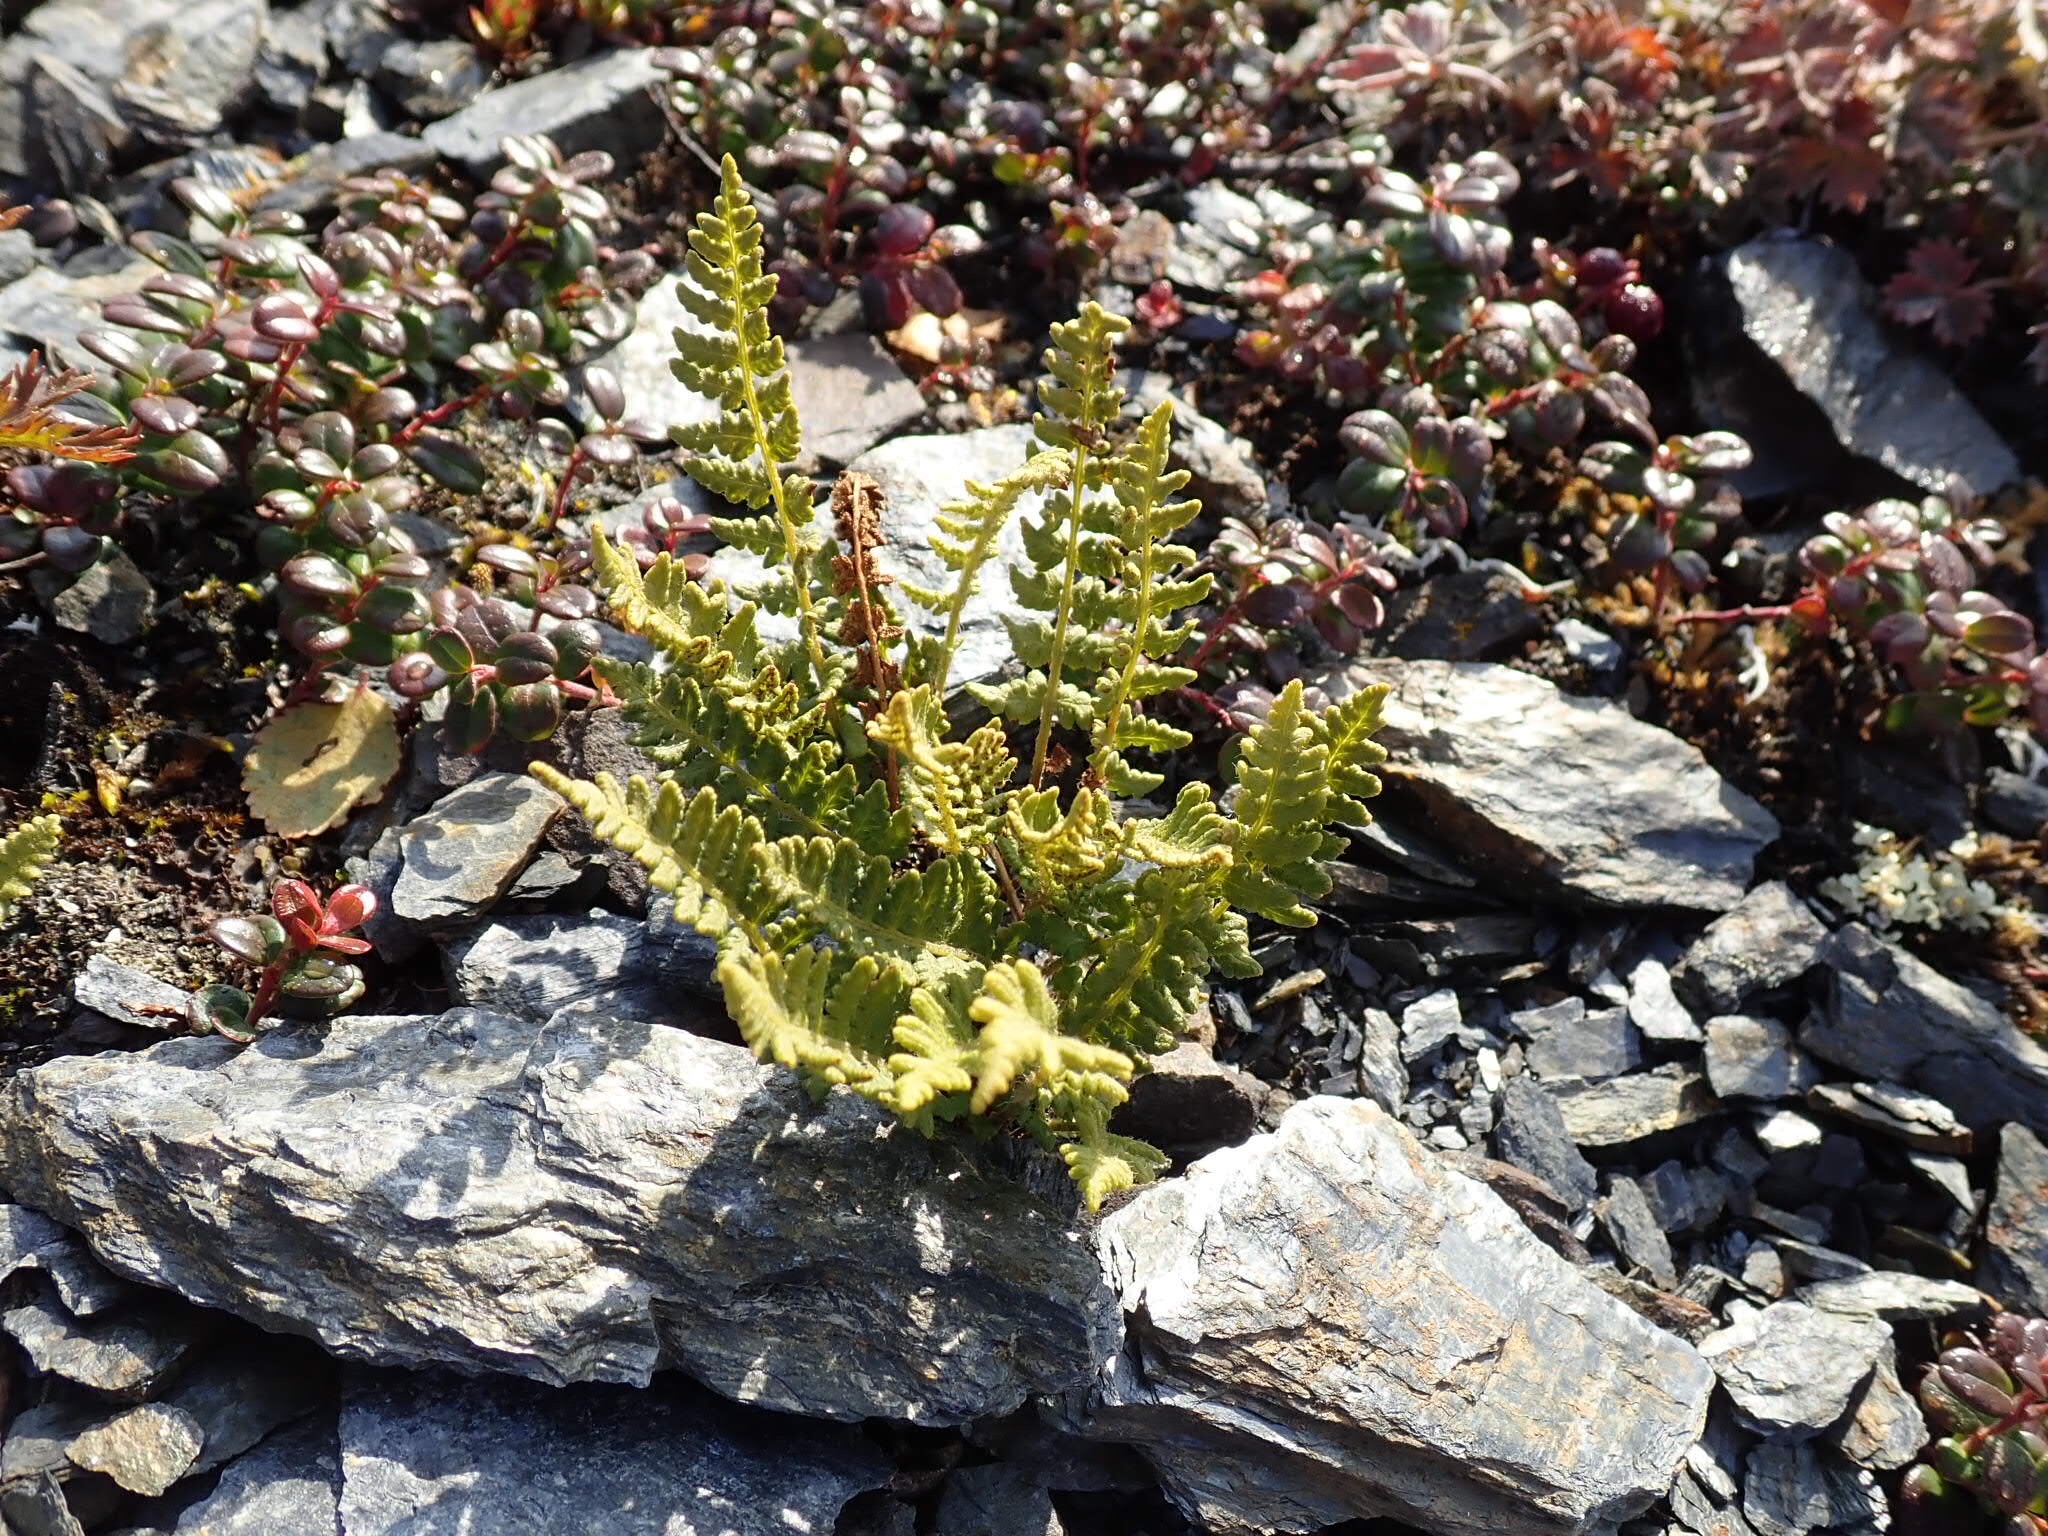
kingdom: Plantae
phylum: Tracheophyta
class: Polypodiopsida
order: Polypodiales
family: Woodsiaceae
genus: Woodsia
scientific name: Woodsia ilvensis
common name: Fragrant woodsia
